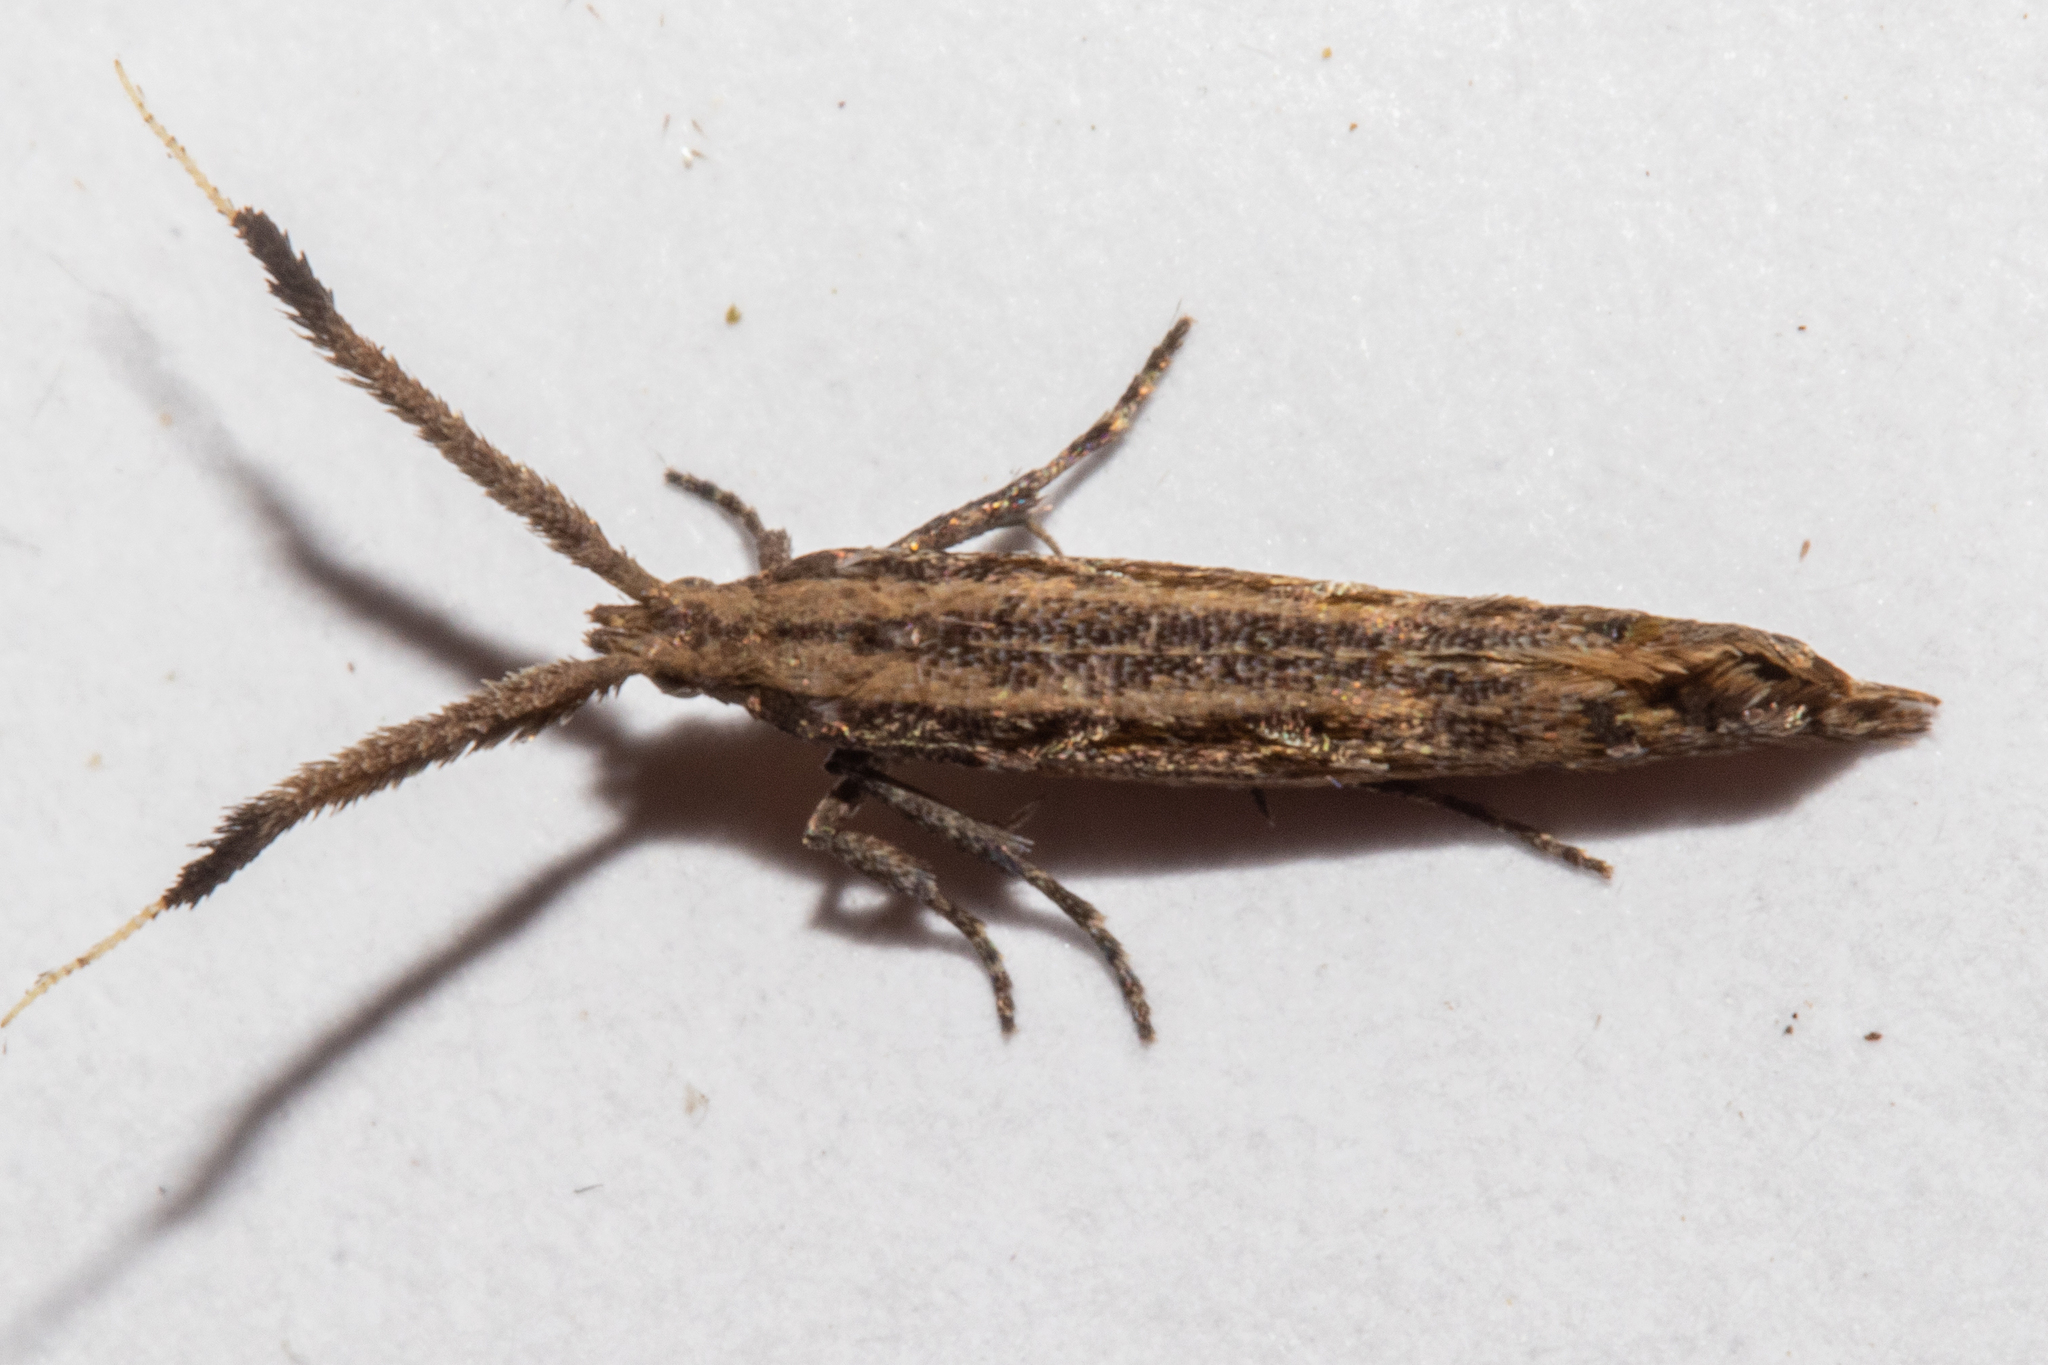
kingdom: Animalia
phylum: Arthropoda
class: Insecta
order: Lepidoptera
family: Plutellidae
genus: Protosynaema
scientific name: Protosynaema steropucha
